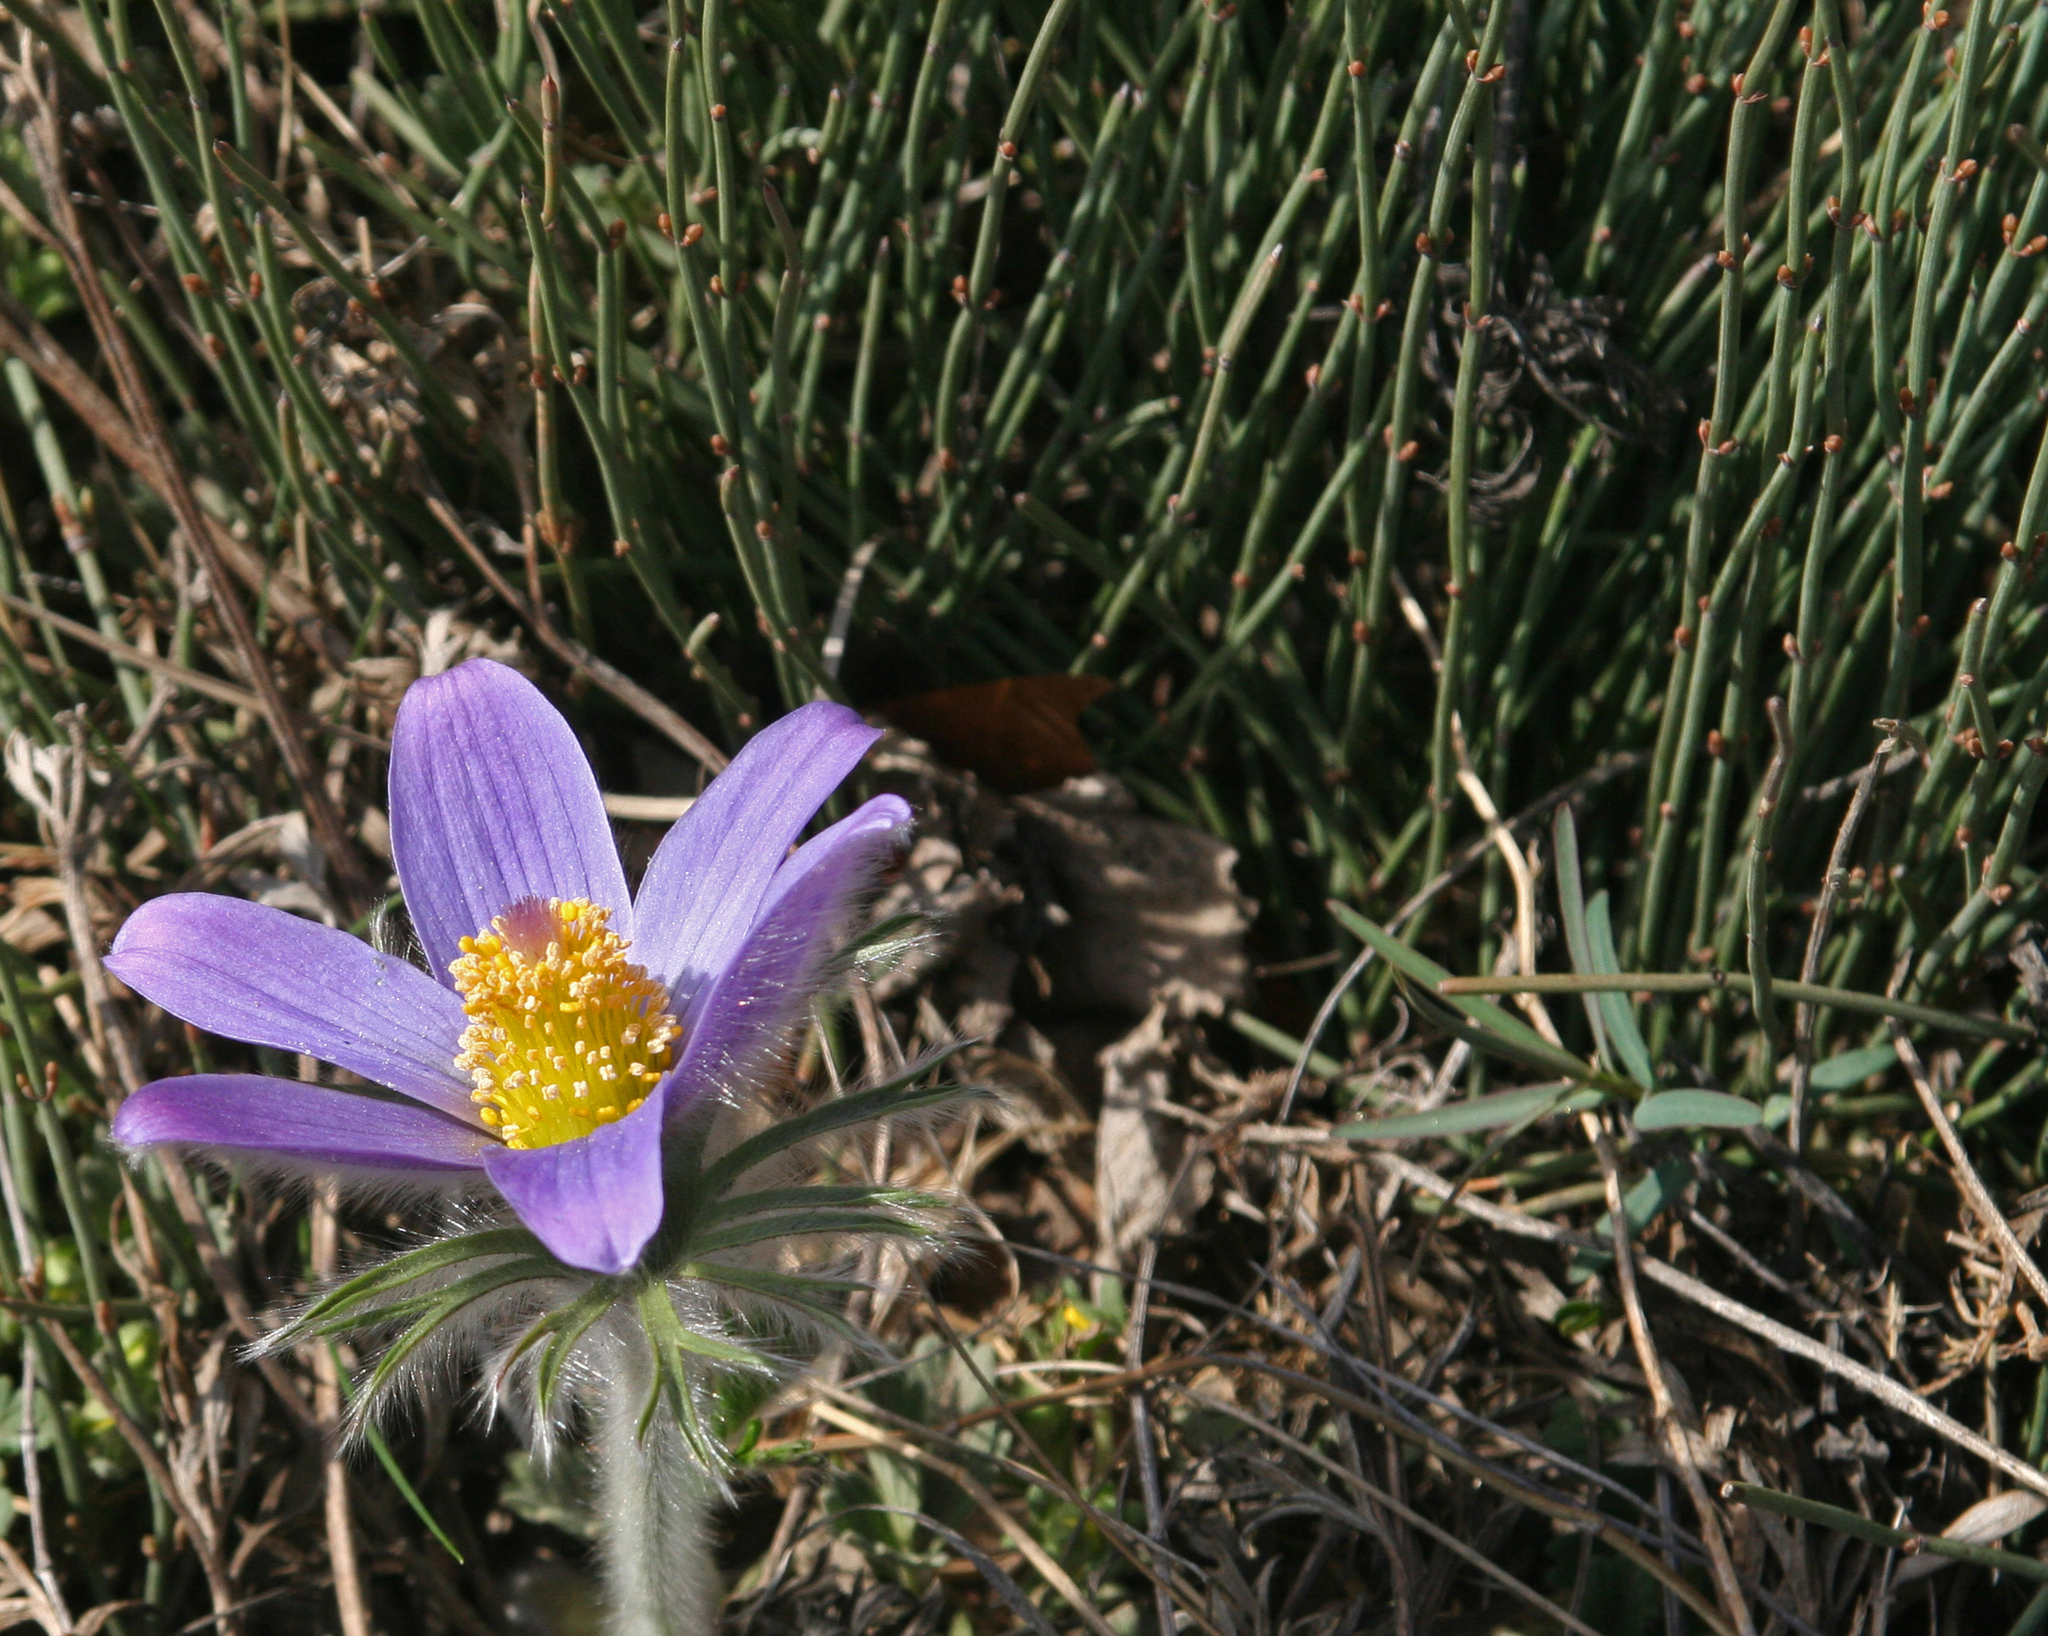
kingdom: Plantae
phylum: Tracheophyta
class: Gnetopsida
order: Ephedrales
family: Ephedraceae
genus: Ephedra
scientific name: Ephedra monosperma
